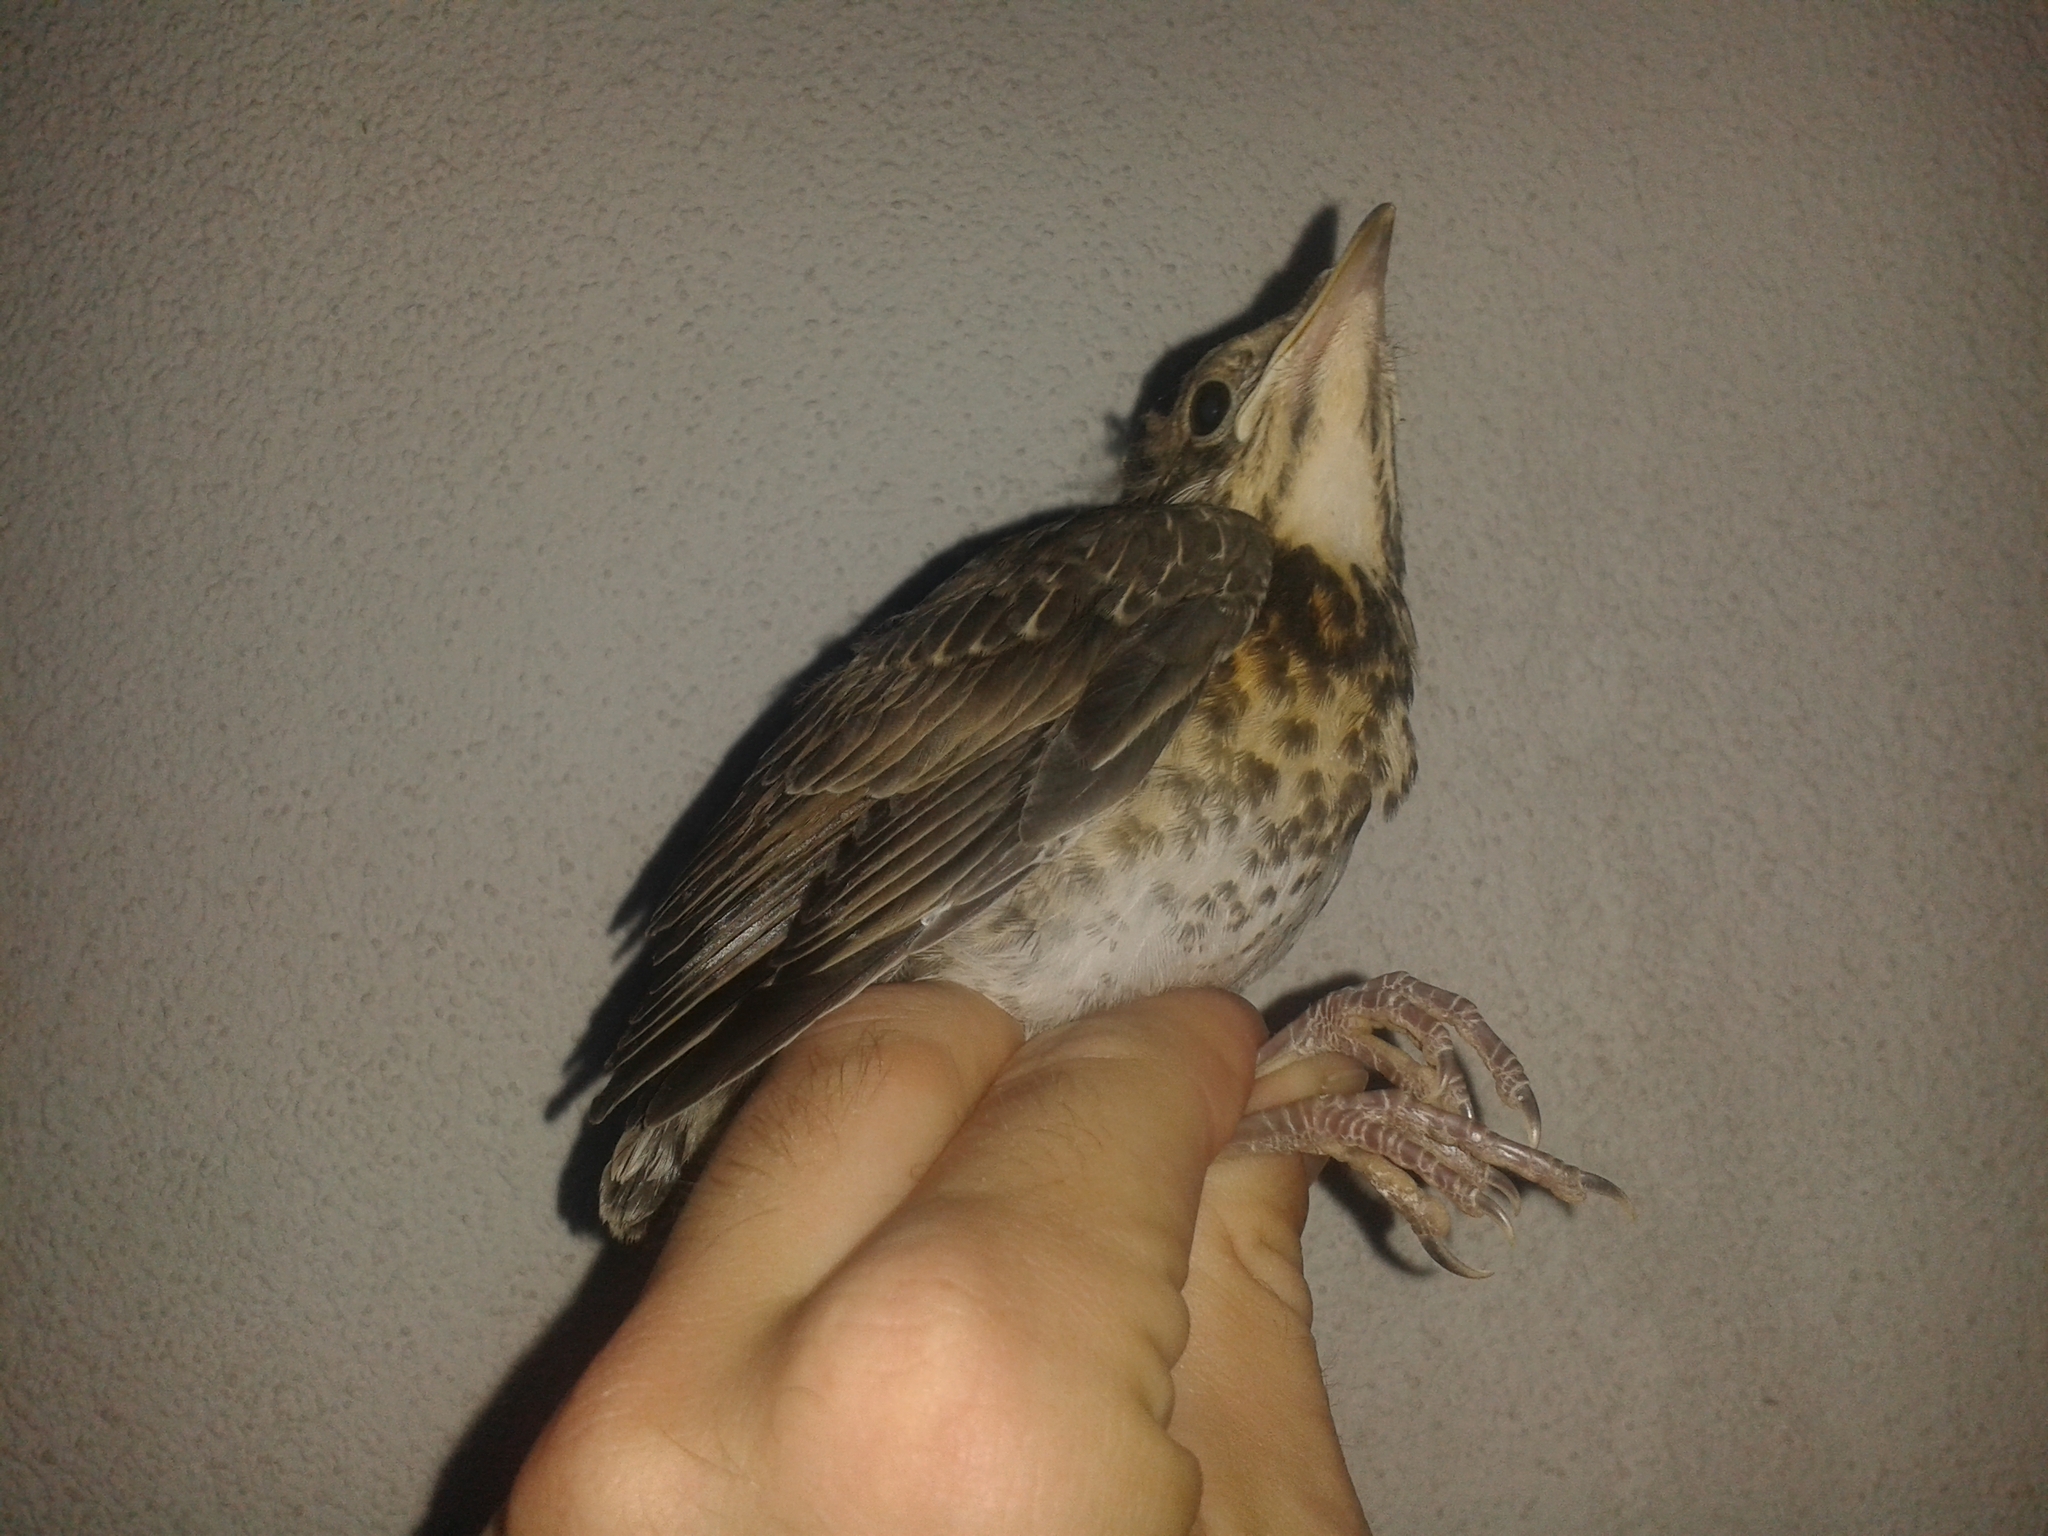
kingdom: Animalia
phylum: Chordata
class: Aves
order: Passeriformes
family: Turdidae
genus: Turdus
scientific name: Turdus pilaris
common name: Fieldfare
